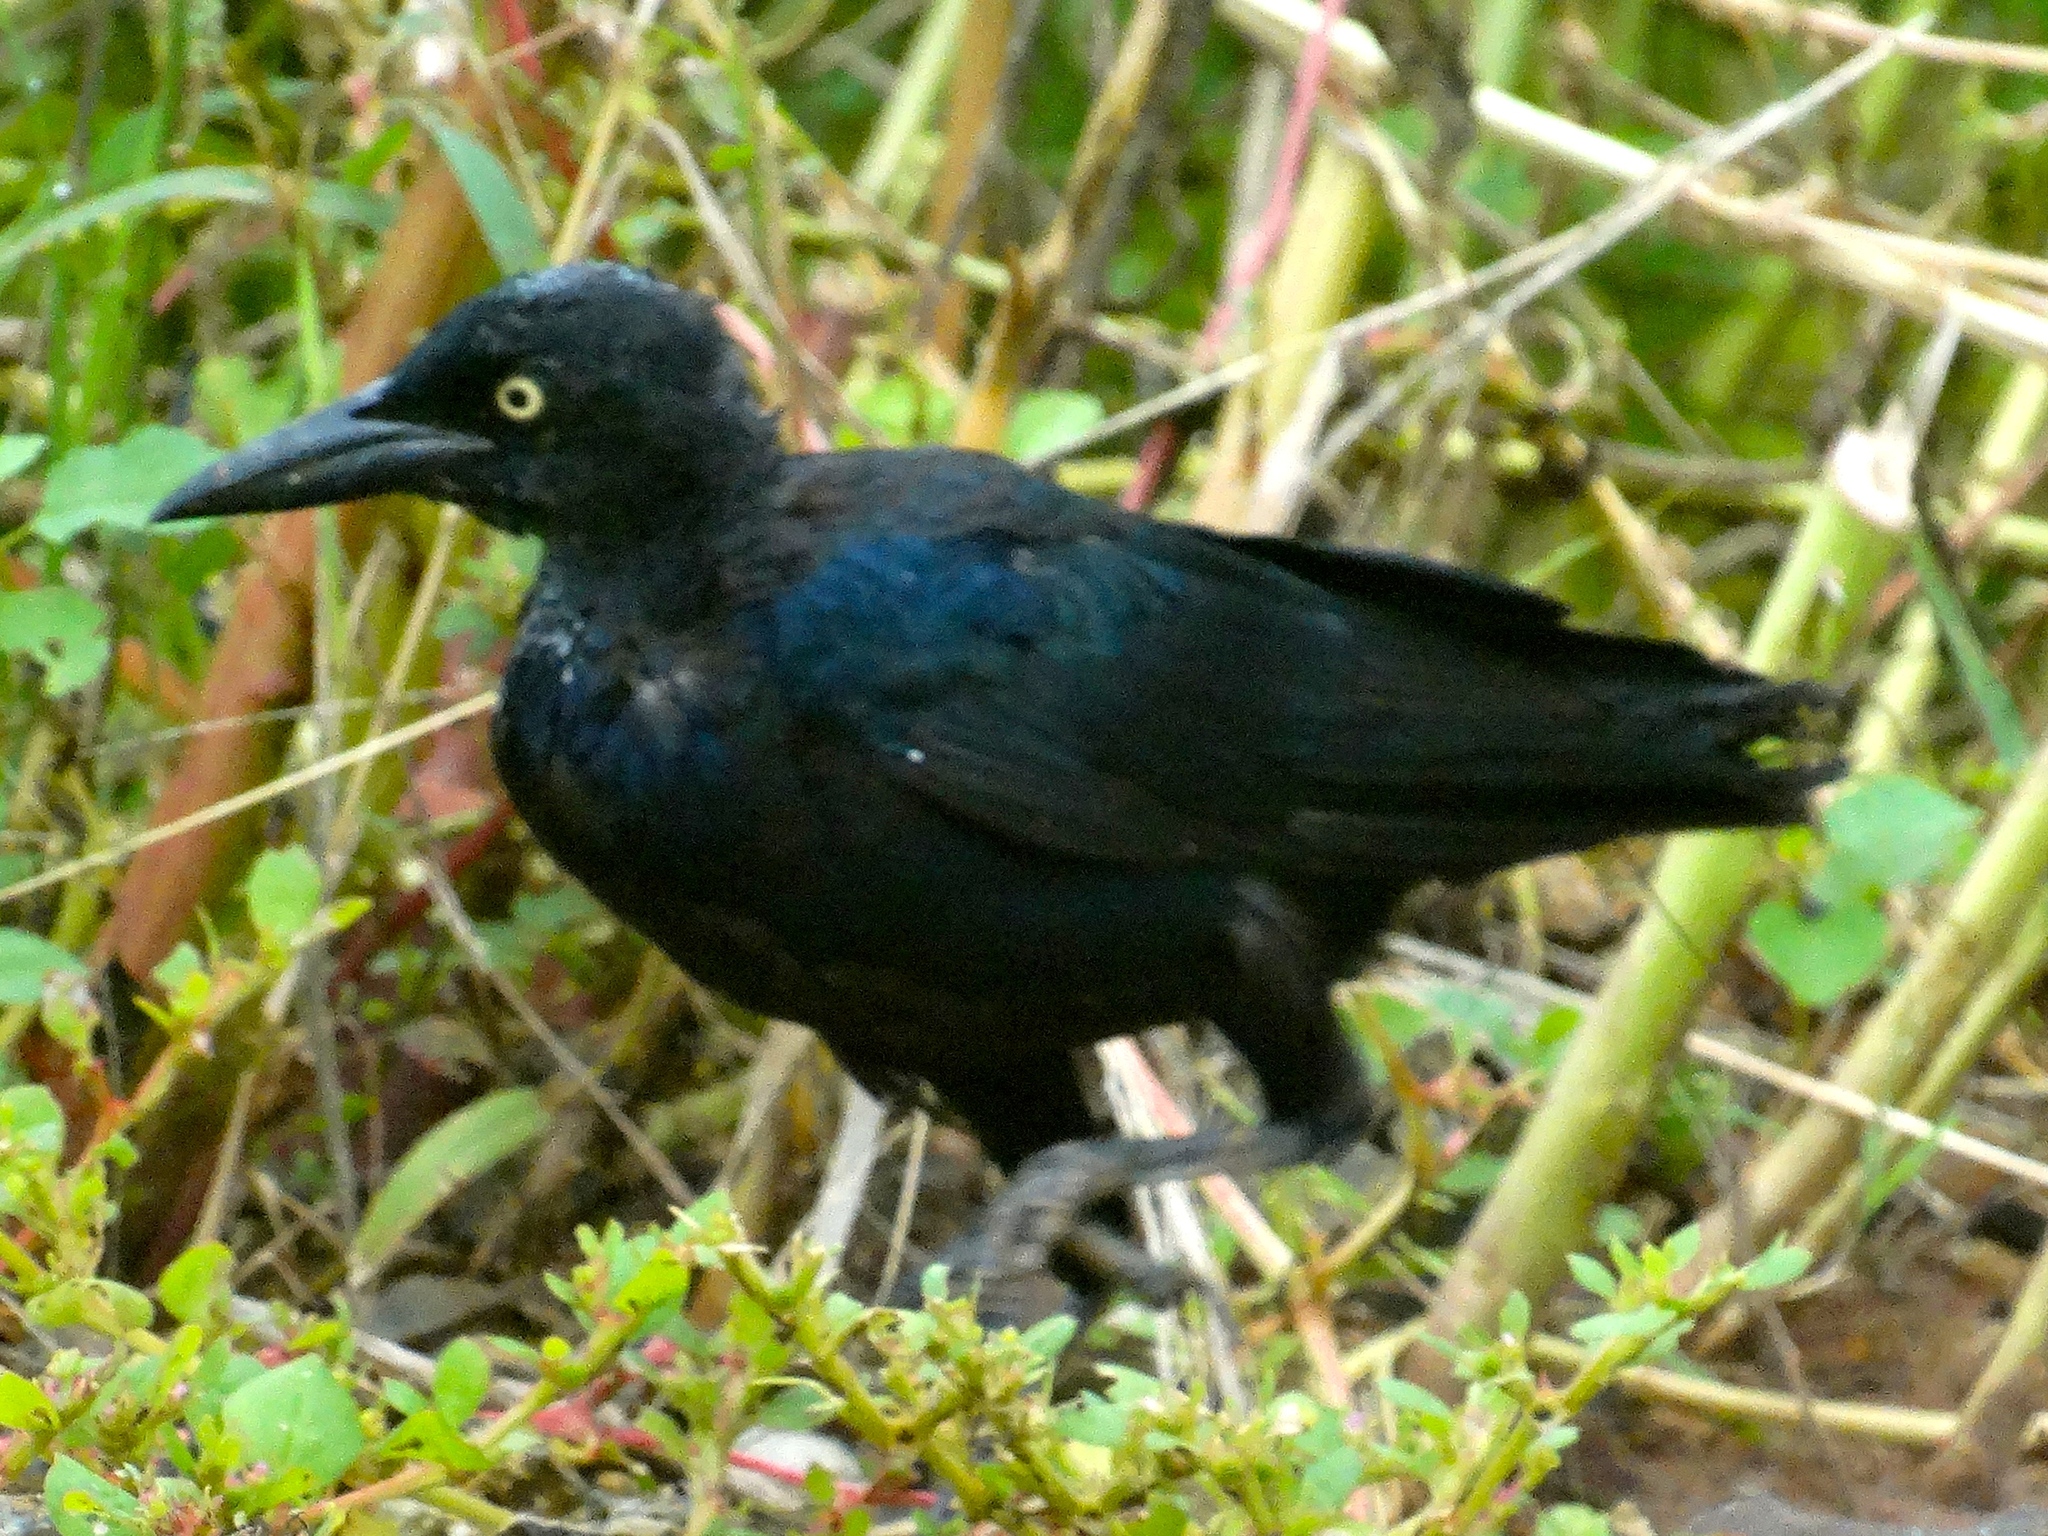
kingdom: Animalia
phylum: Chordata
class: Aves
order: Passeriformes
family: Icteridae
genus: Quiscalus
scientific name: Quiscalus mexicanus
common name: Great-tailed grackle
